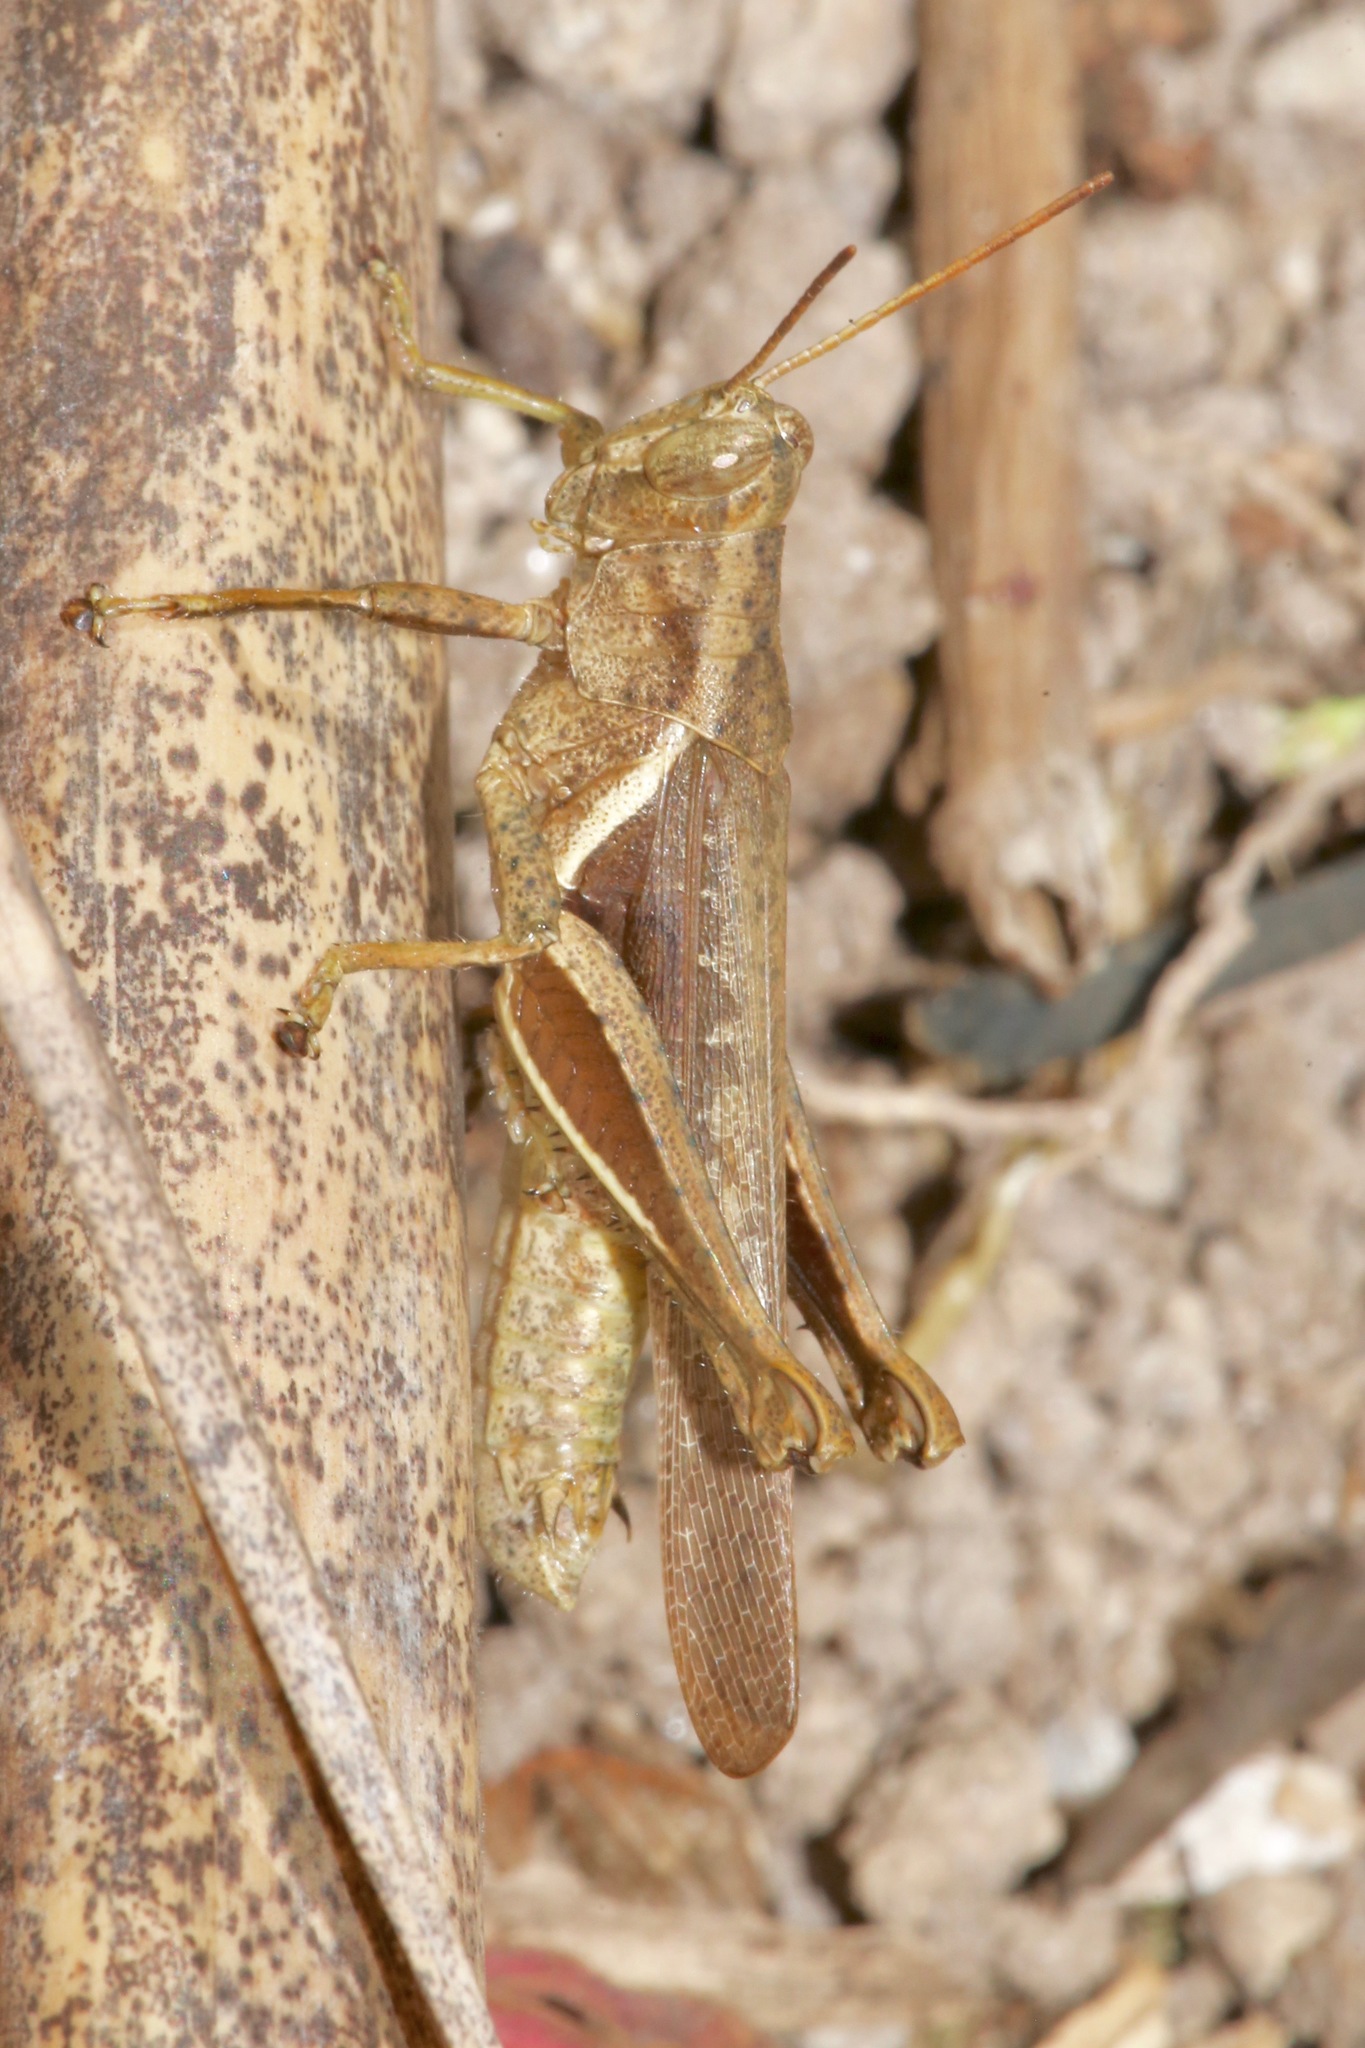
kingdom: Animalia
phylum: Arthropoda
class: Insecta
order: Orthoptera
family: Acrididae
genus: Abracris
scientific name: Abracris flavolineata
